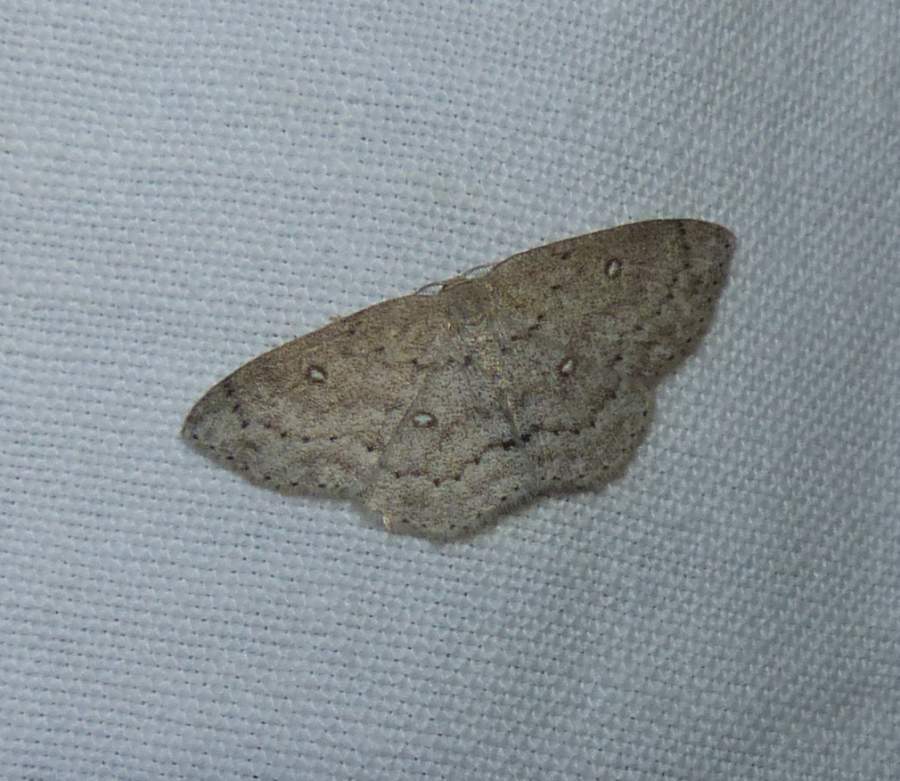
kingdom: Animalia
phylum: Arthropoda
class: Insecta
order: Lepidoptera
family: Geometridae
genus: Cyclophora
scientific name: Cyclophora pendulinaria
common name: Sweet fern geometer
